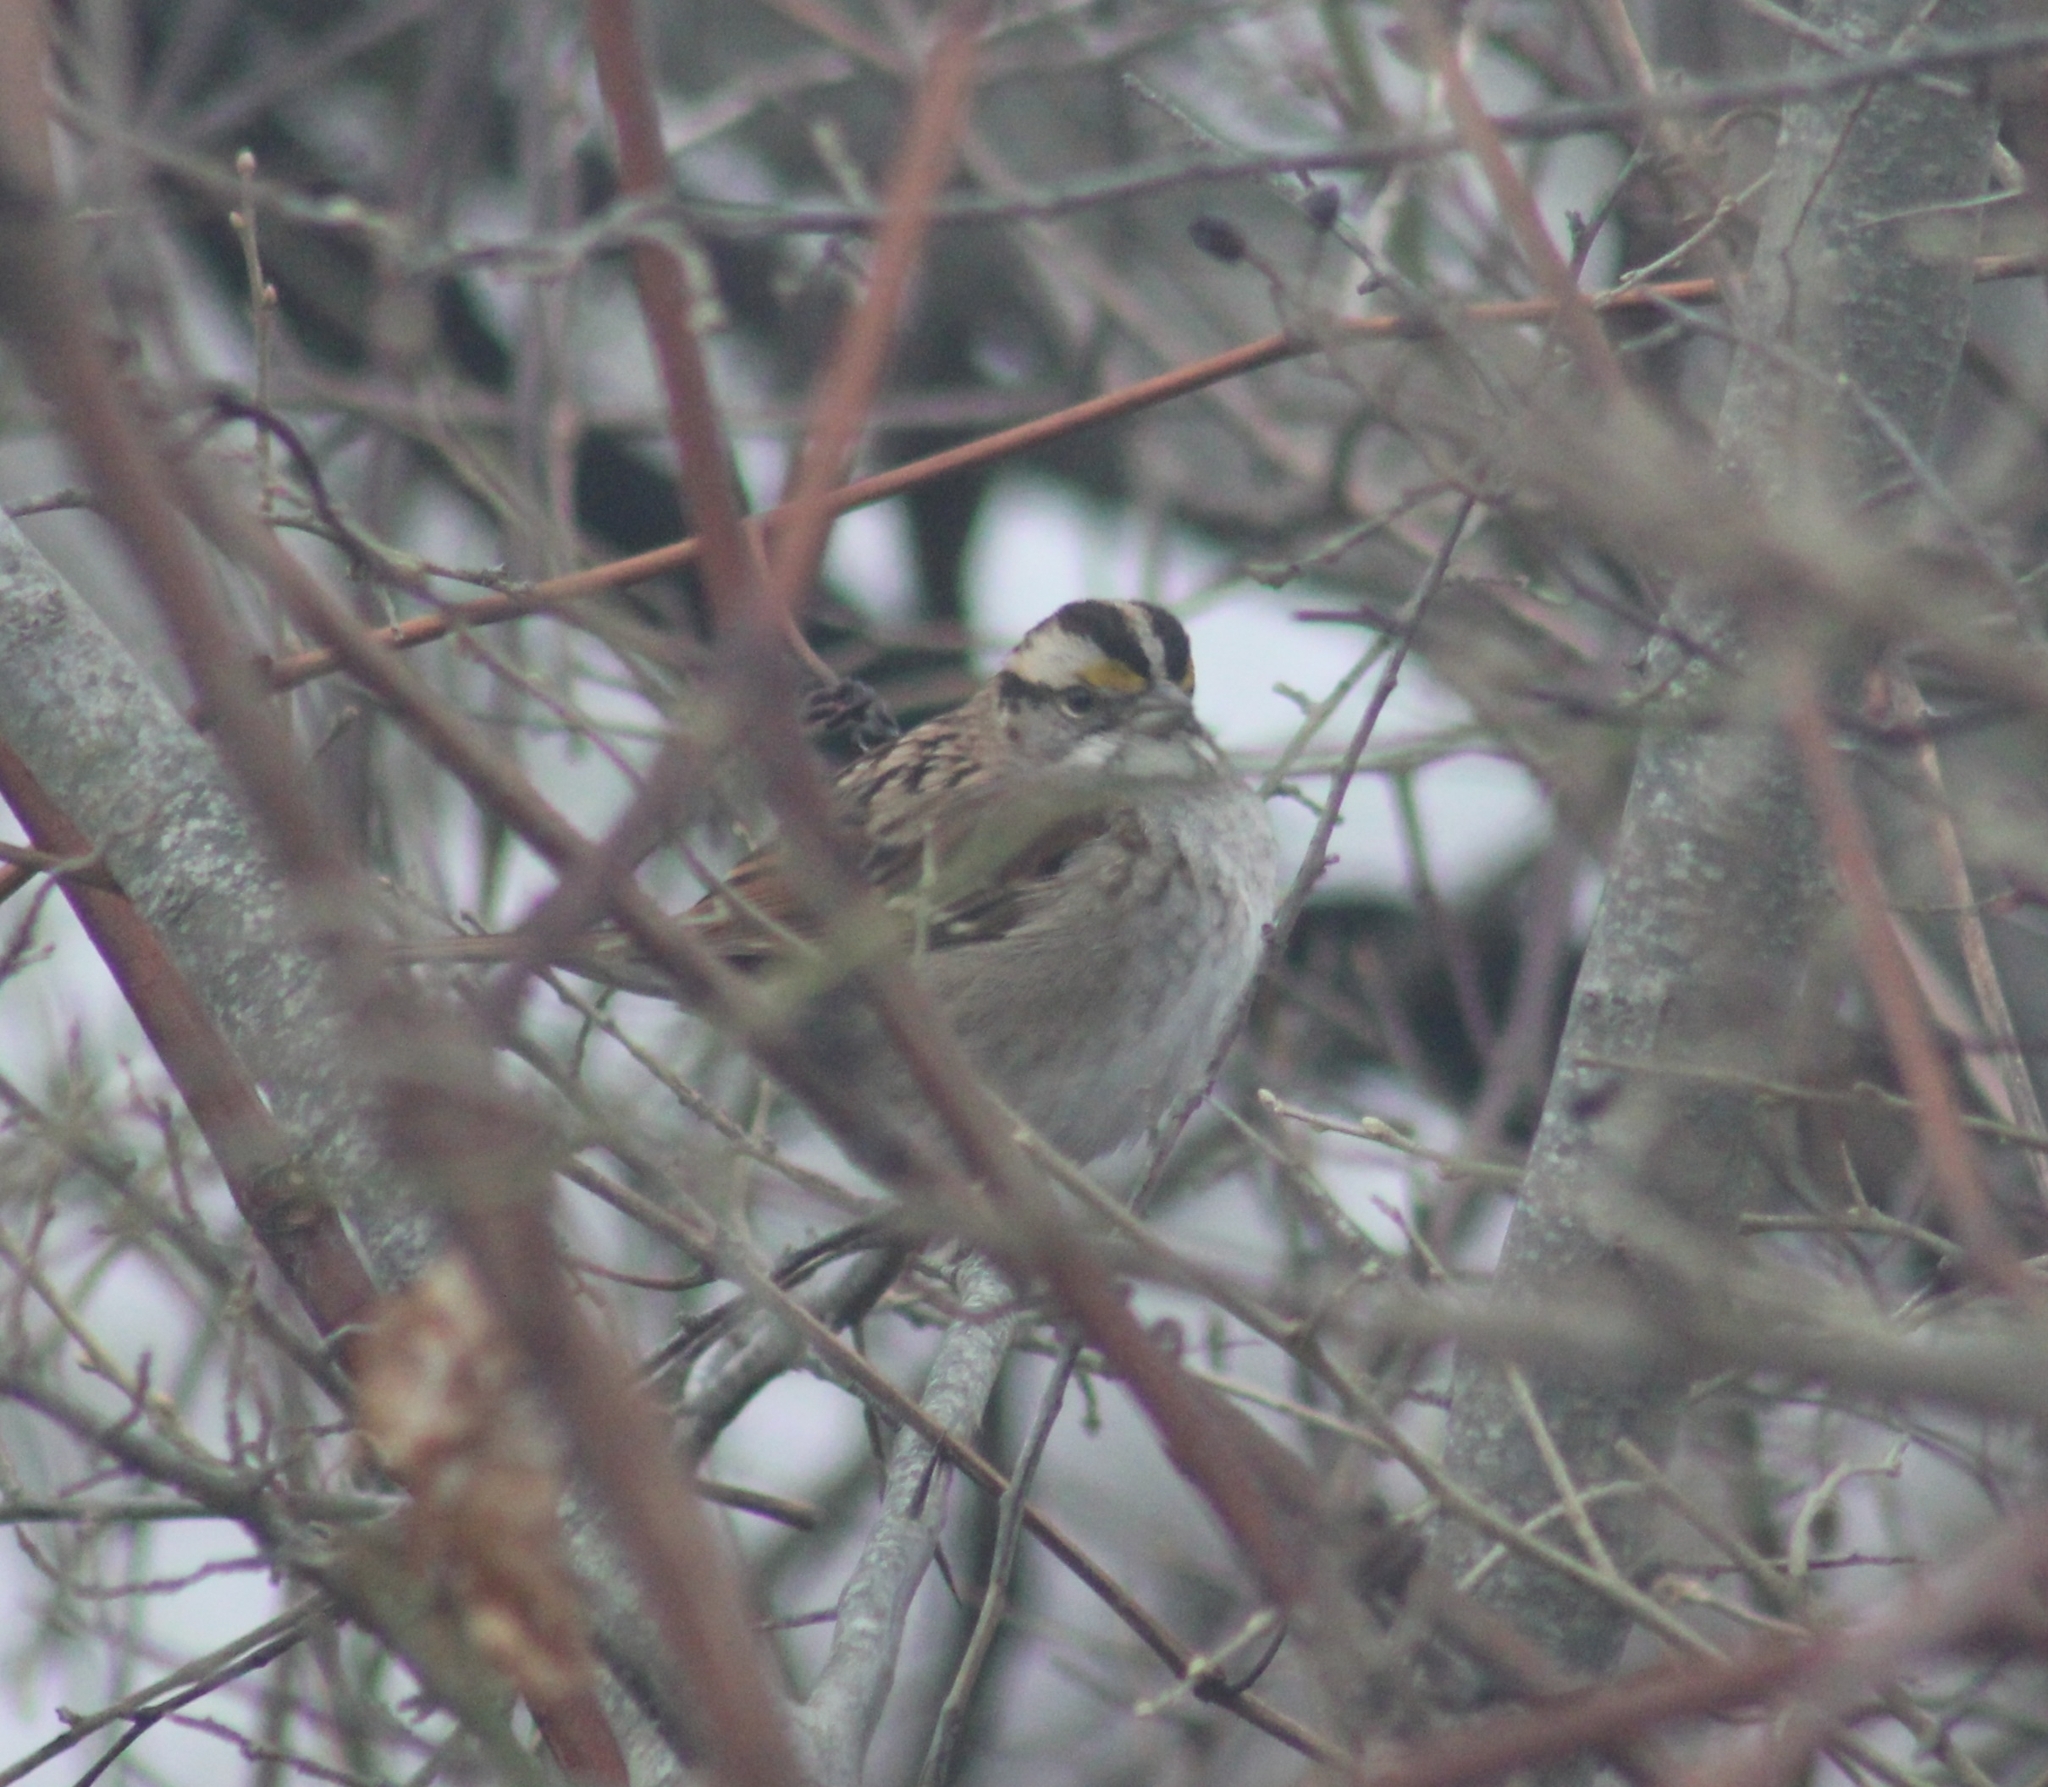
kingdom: Animalia
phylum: Chordata
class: Aves
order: Passeriformes
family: Passerellidae
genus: Zonotrichia
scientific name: Zonotrichia albicollis
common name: White-throated sparrow
